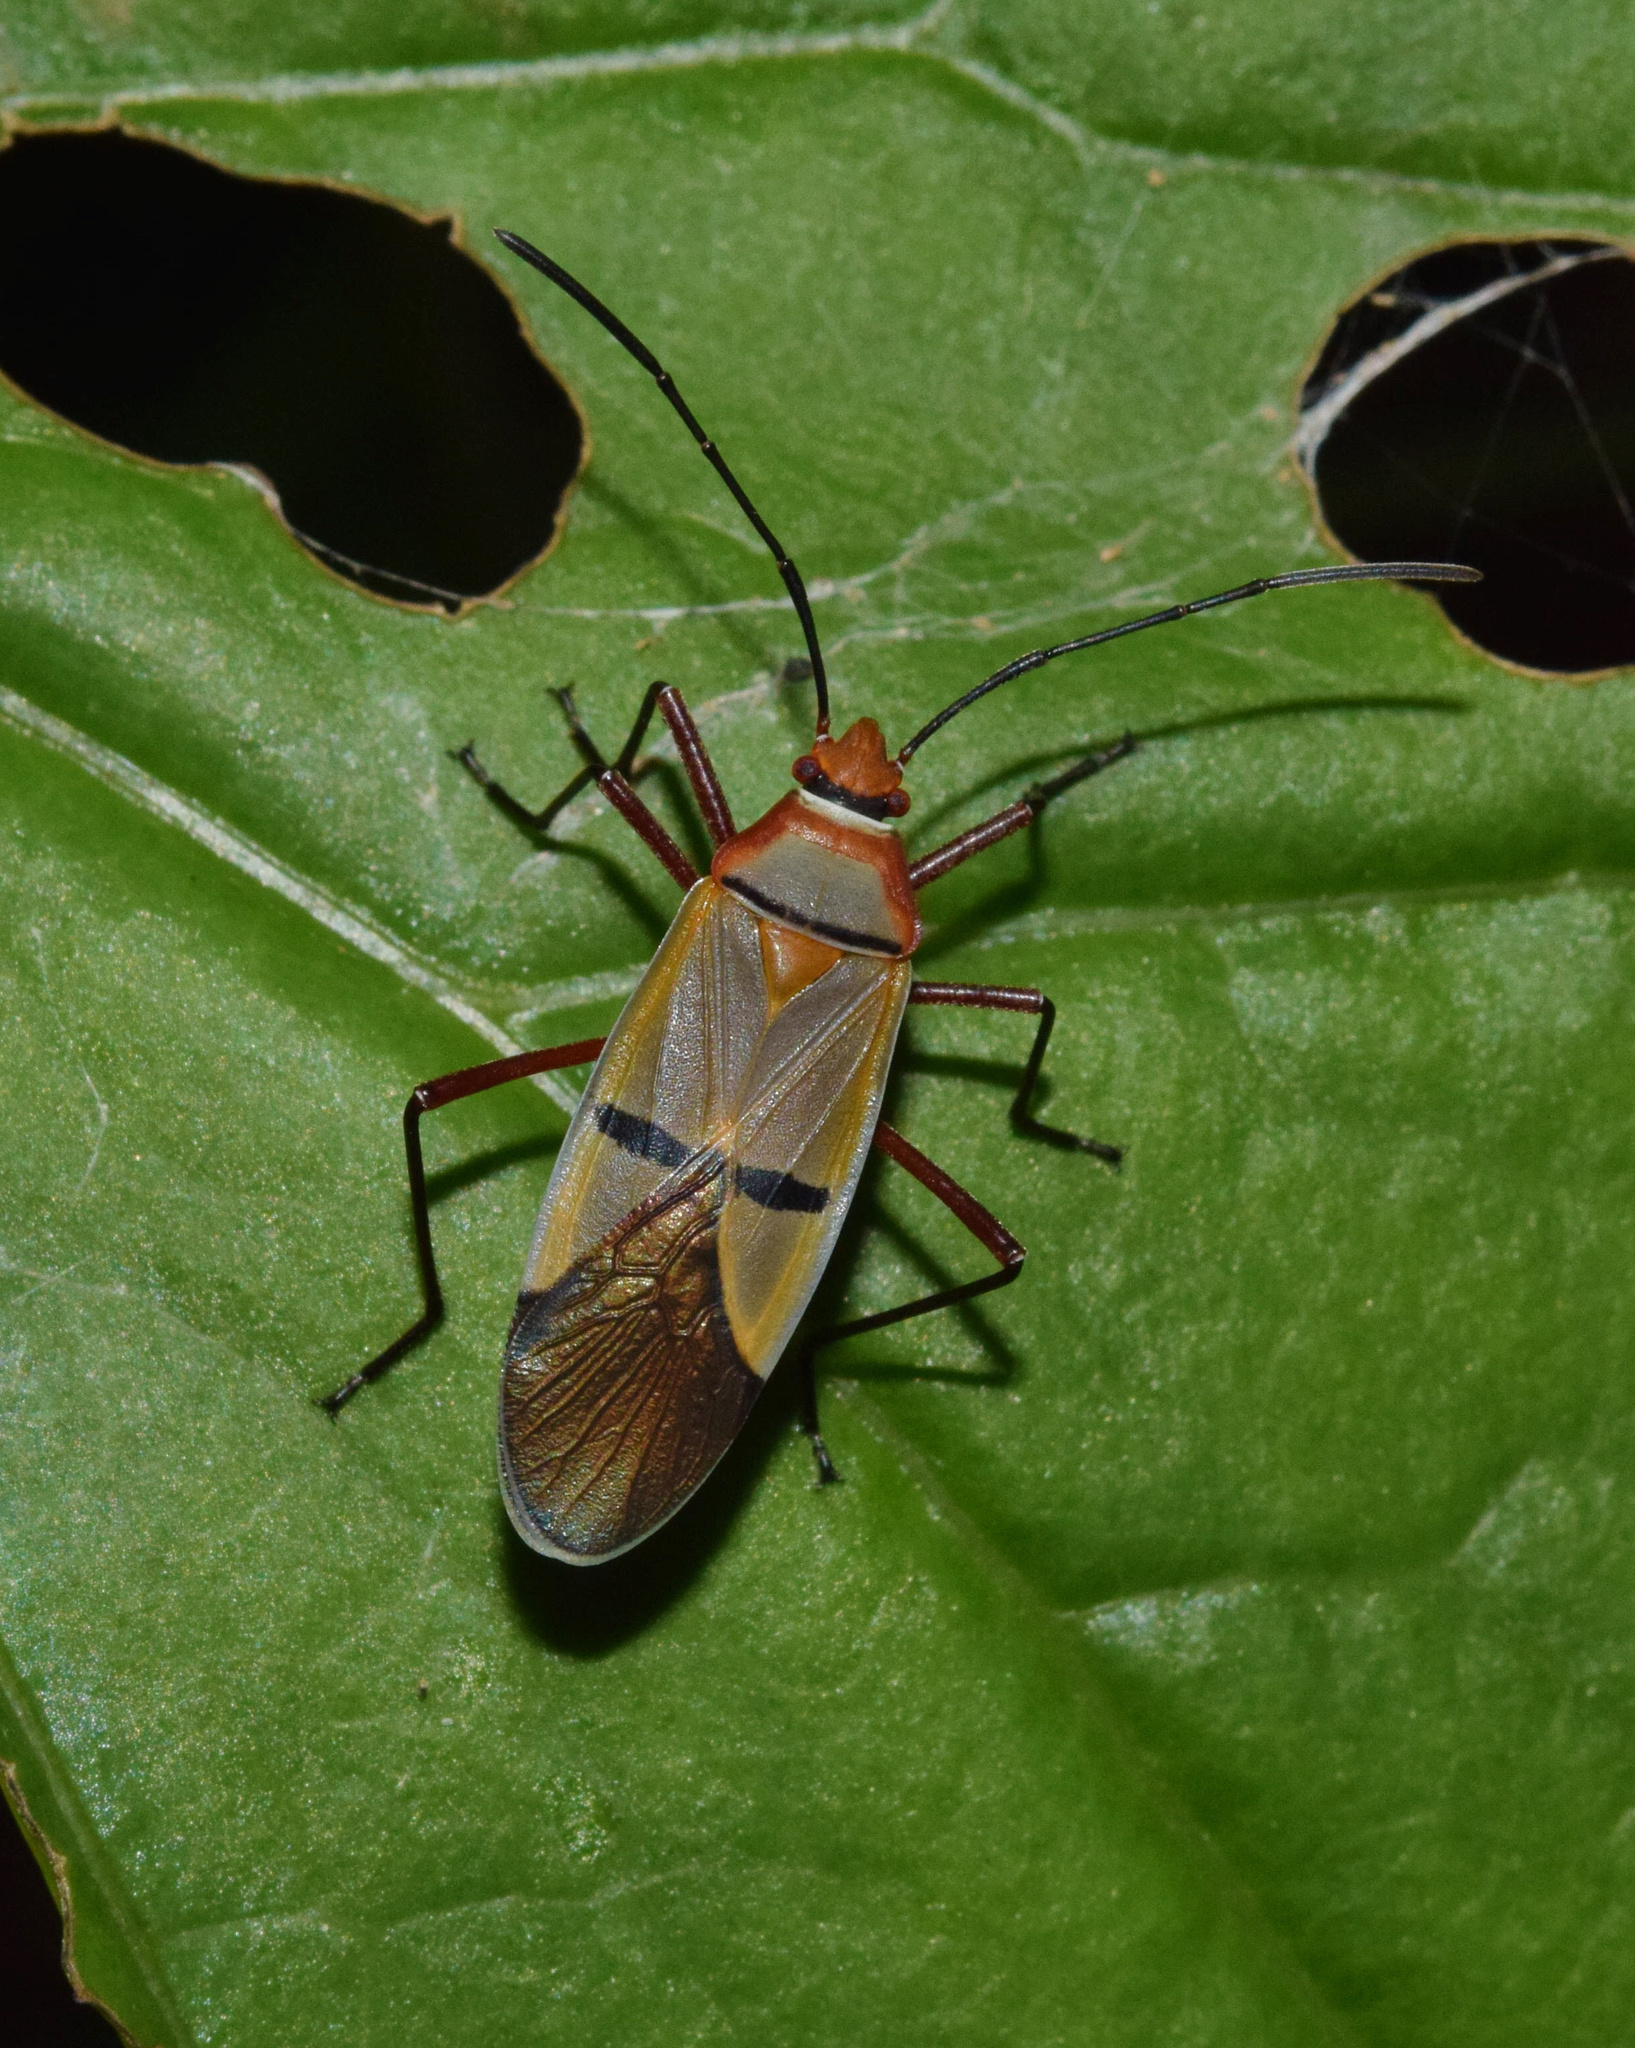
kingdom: Animalia
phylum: Arthropoda
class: Insecta
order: Hemiptera
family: Pyrrhocoridae
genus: Dysdercus
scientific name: Dysdercus
